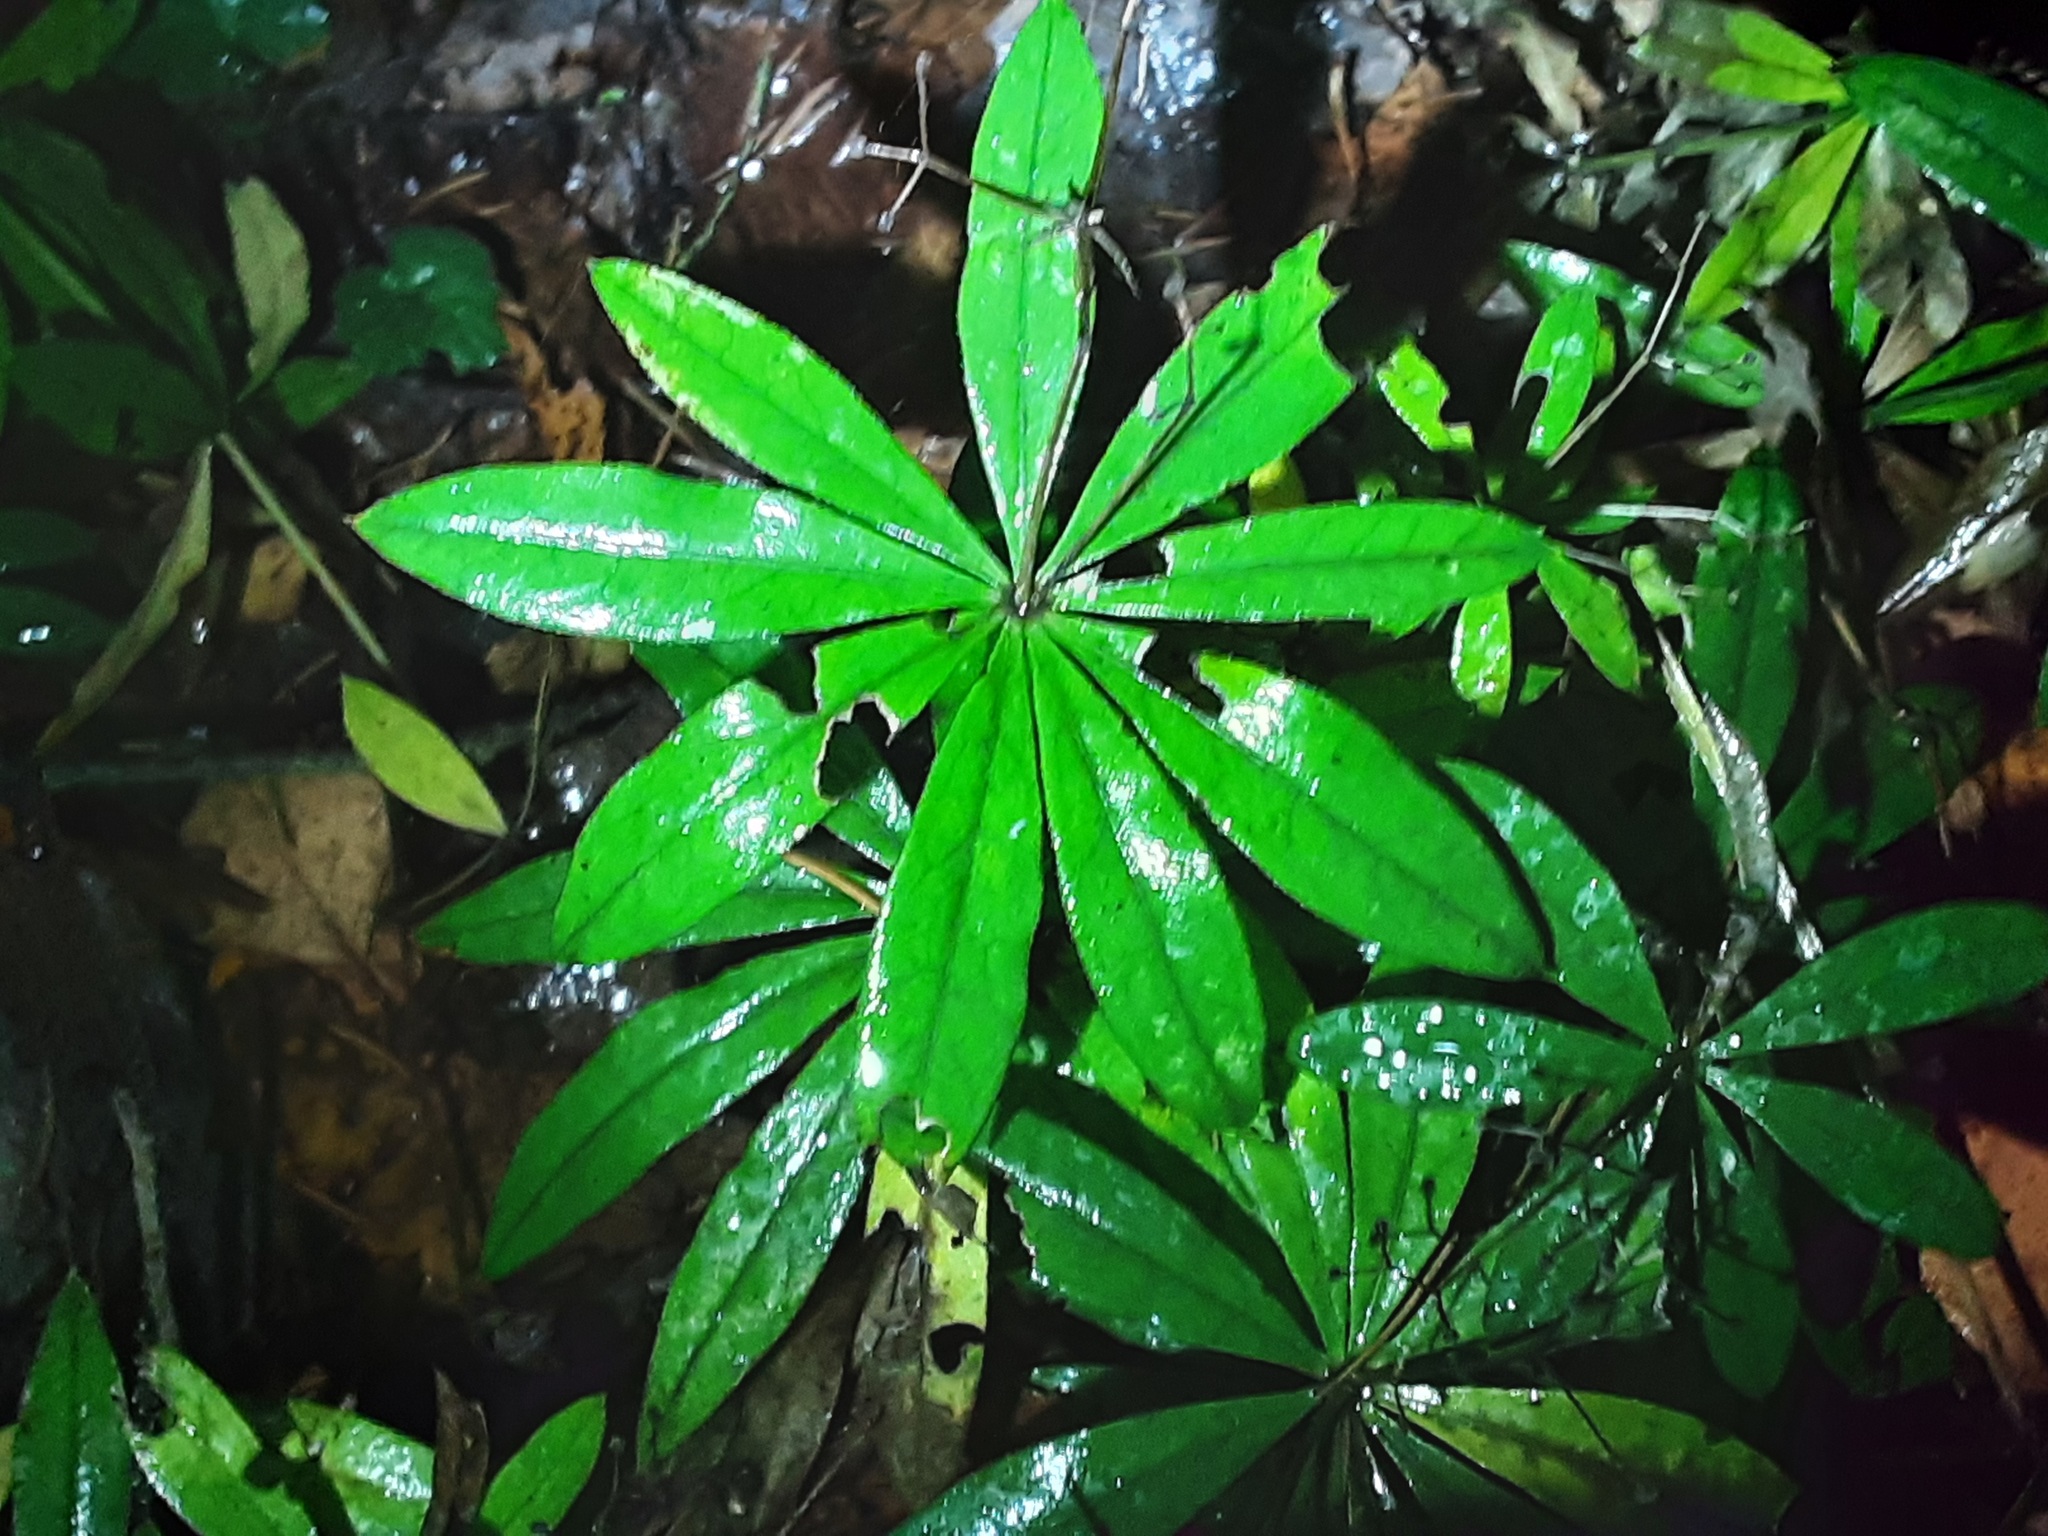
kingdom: Plantae
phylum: Tracheophyta
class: Magnoliopsida
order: Gentianales
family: Rubiaceae
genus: Galium
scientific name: Galium odoratum
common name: Sweet woodruff
